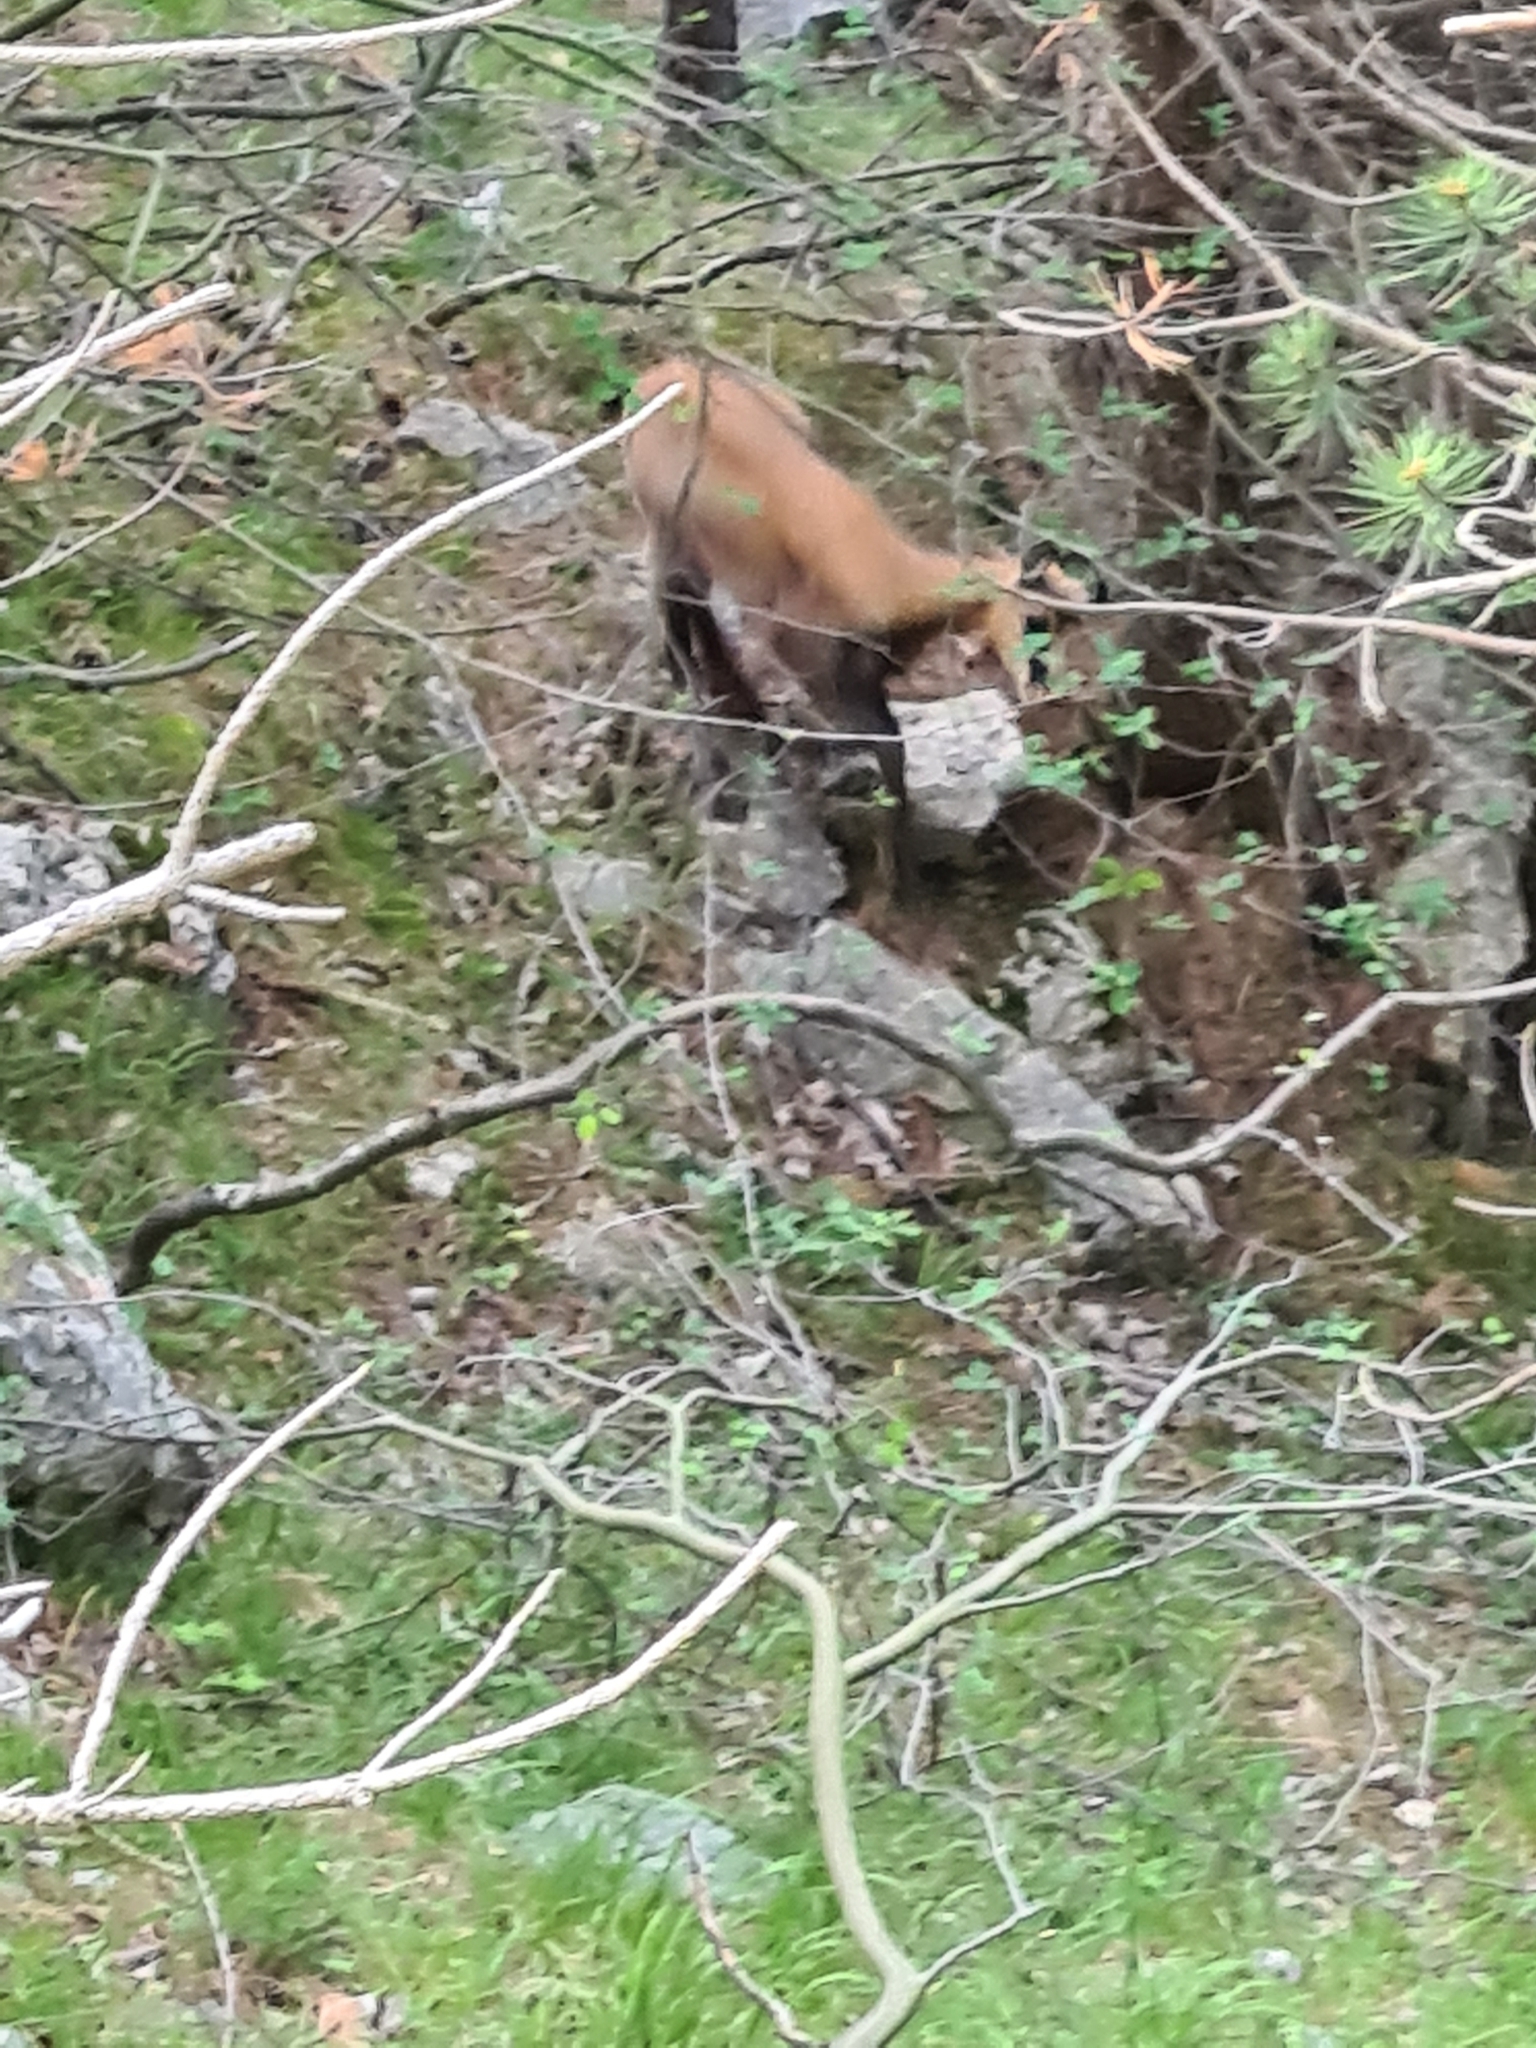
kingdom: Animalia
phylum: Chordata
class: Mammalia
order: Artiodactyla
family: Bovidae
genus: Rupicapra
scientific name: Rupicapra rupicapra
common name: Chamois
